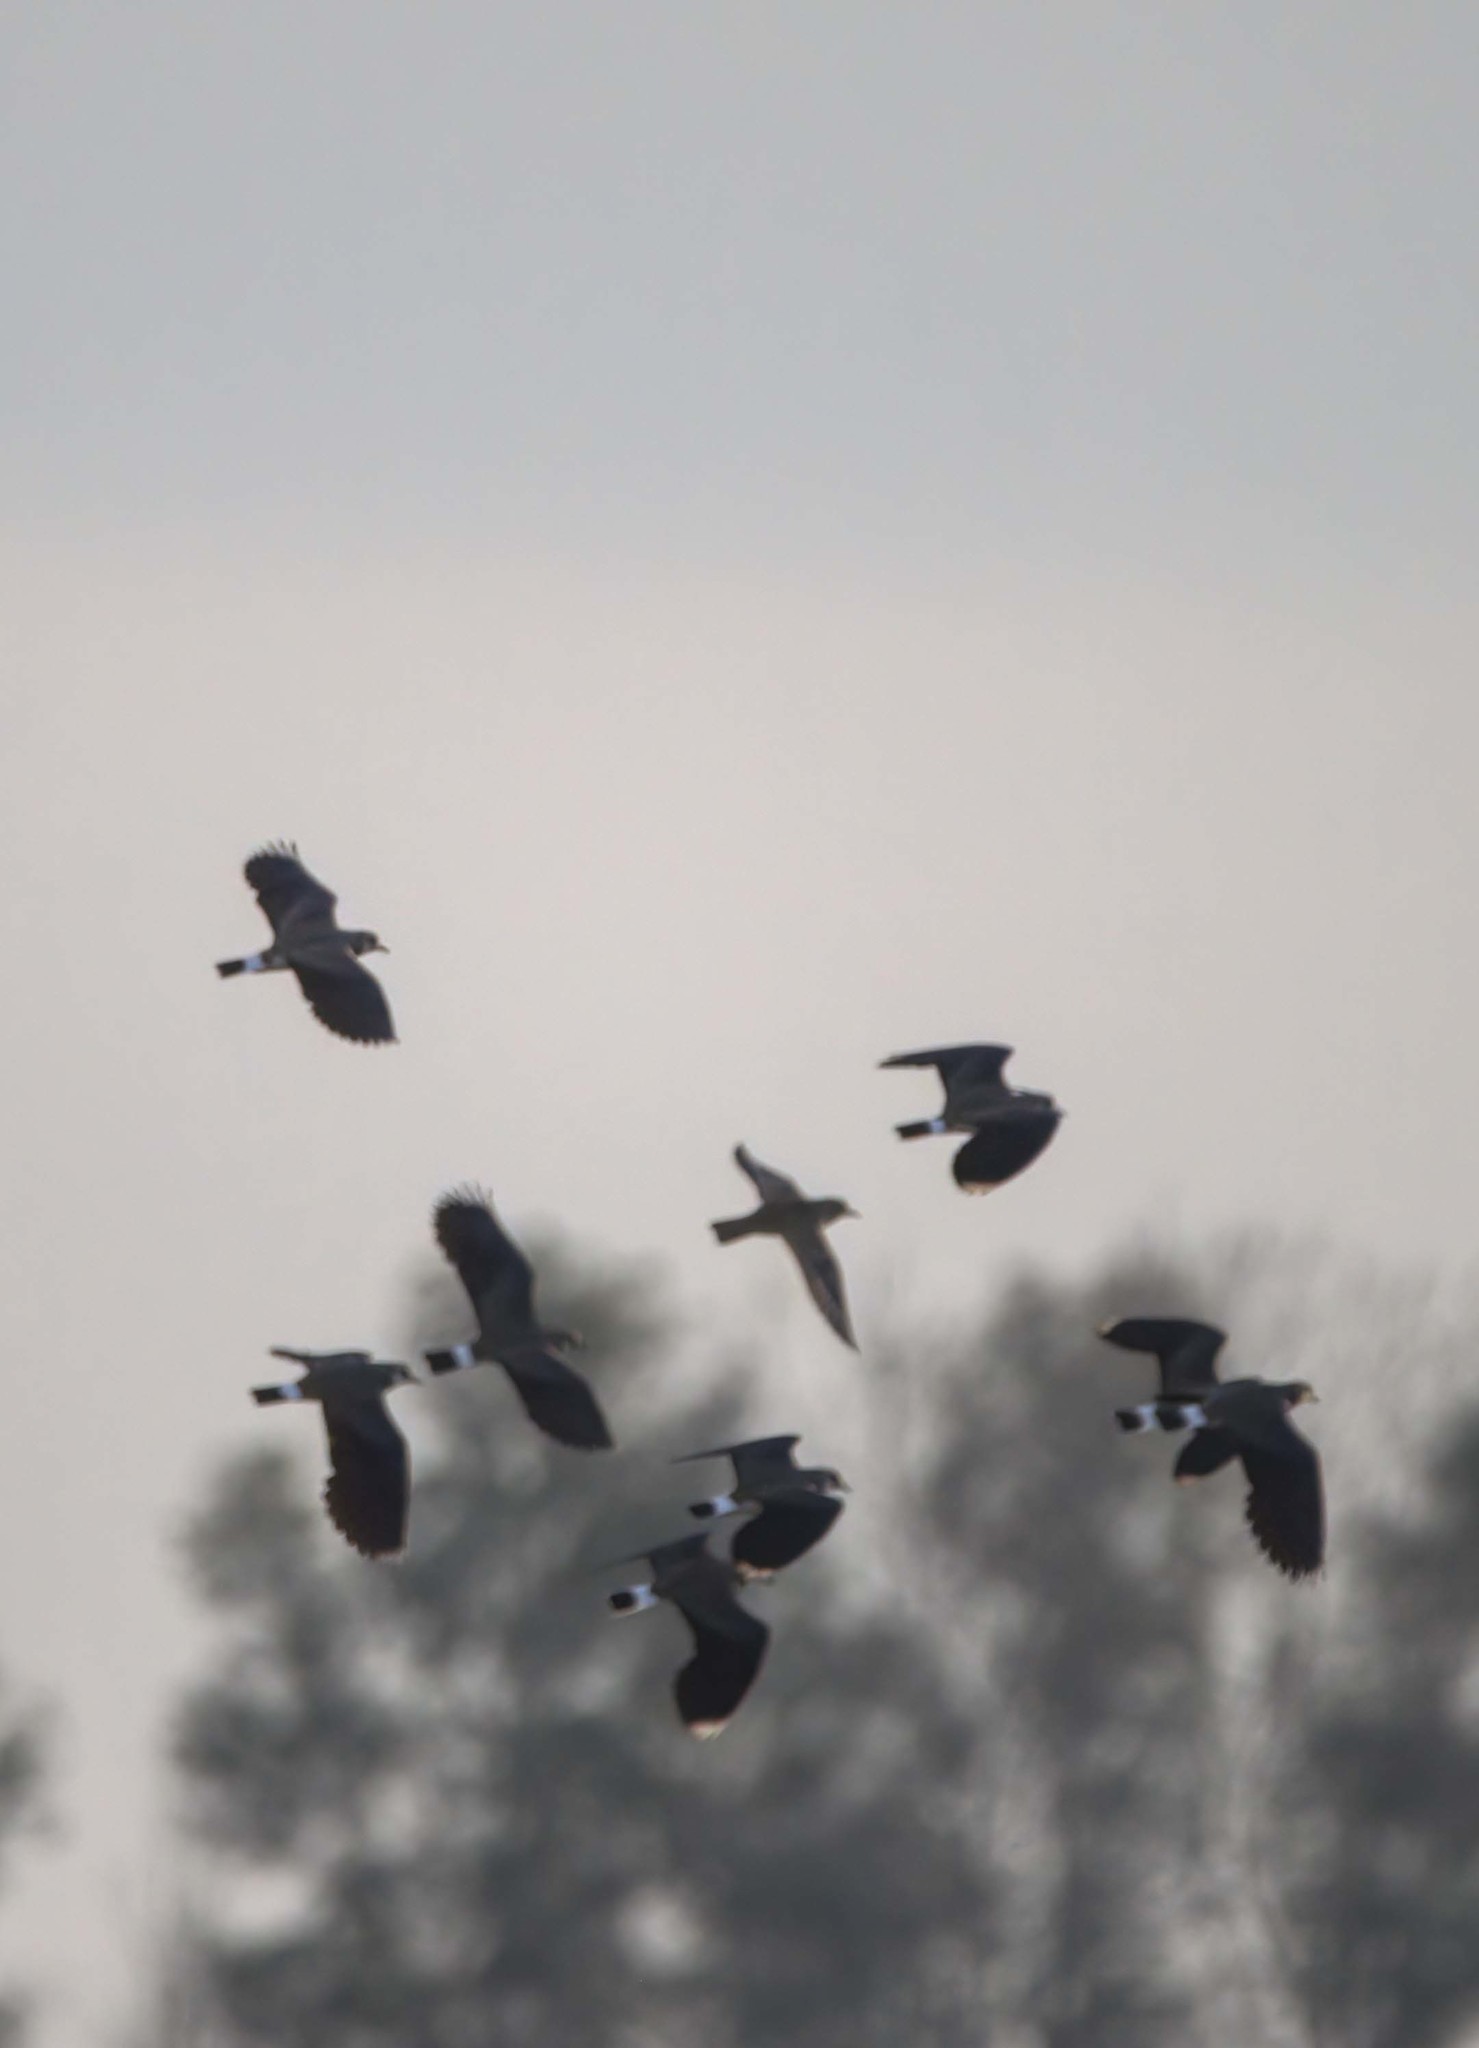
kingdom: Animalia
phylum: Chordata
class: Aves
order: Charadriiformes
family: Charadriidae
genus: Vanellus
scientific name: Vanellus vanellus
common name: Northern lapwing
